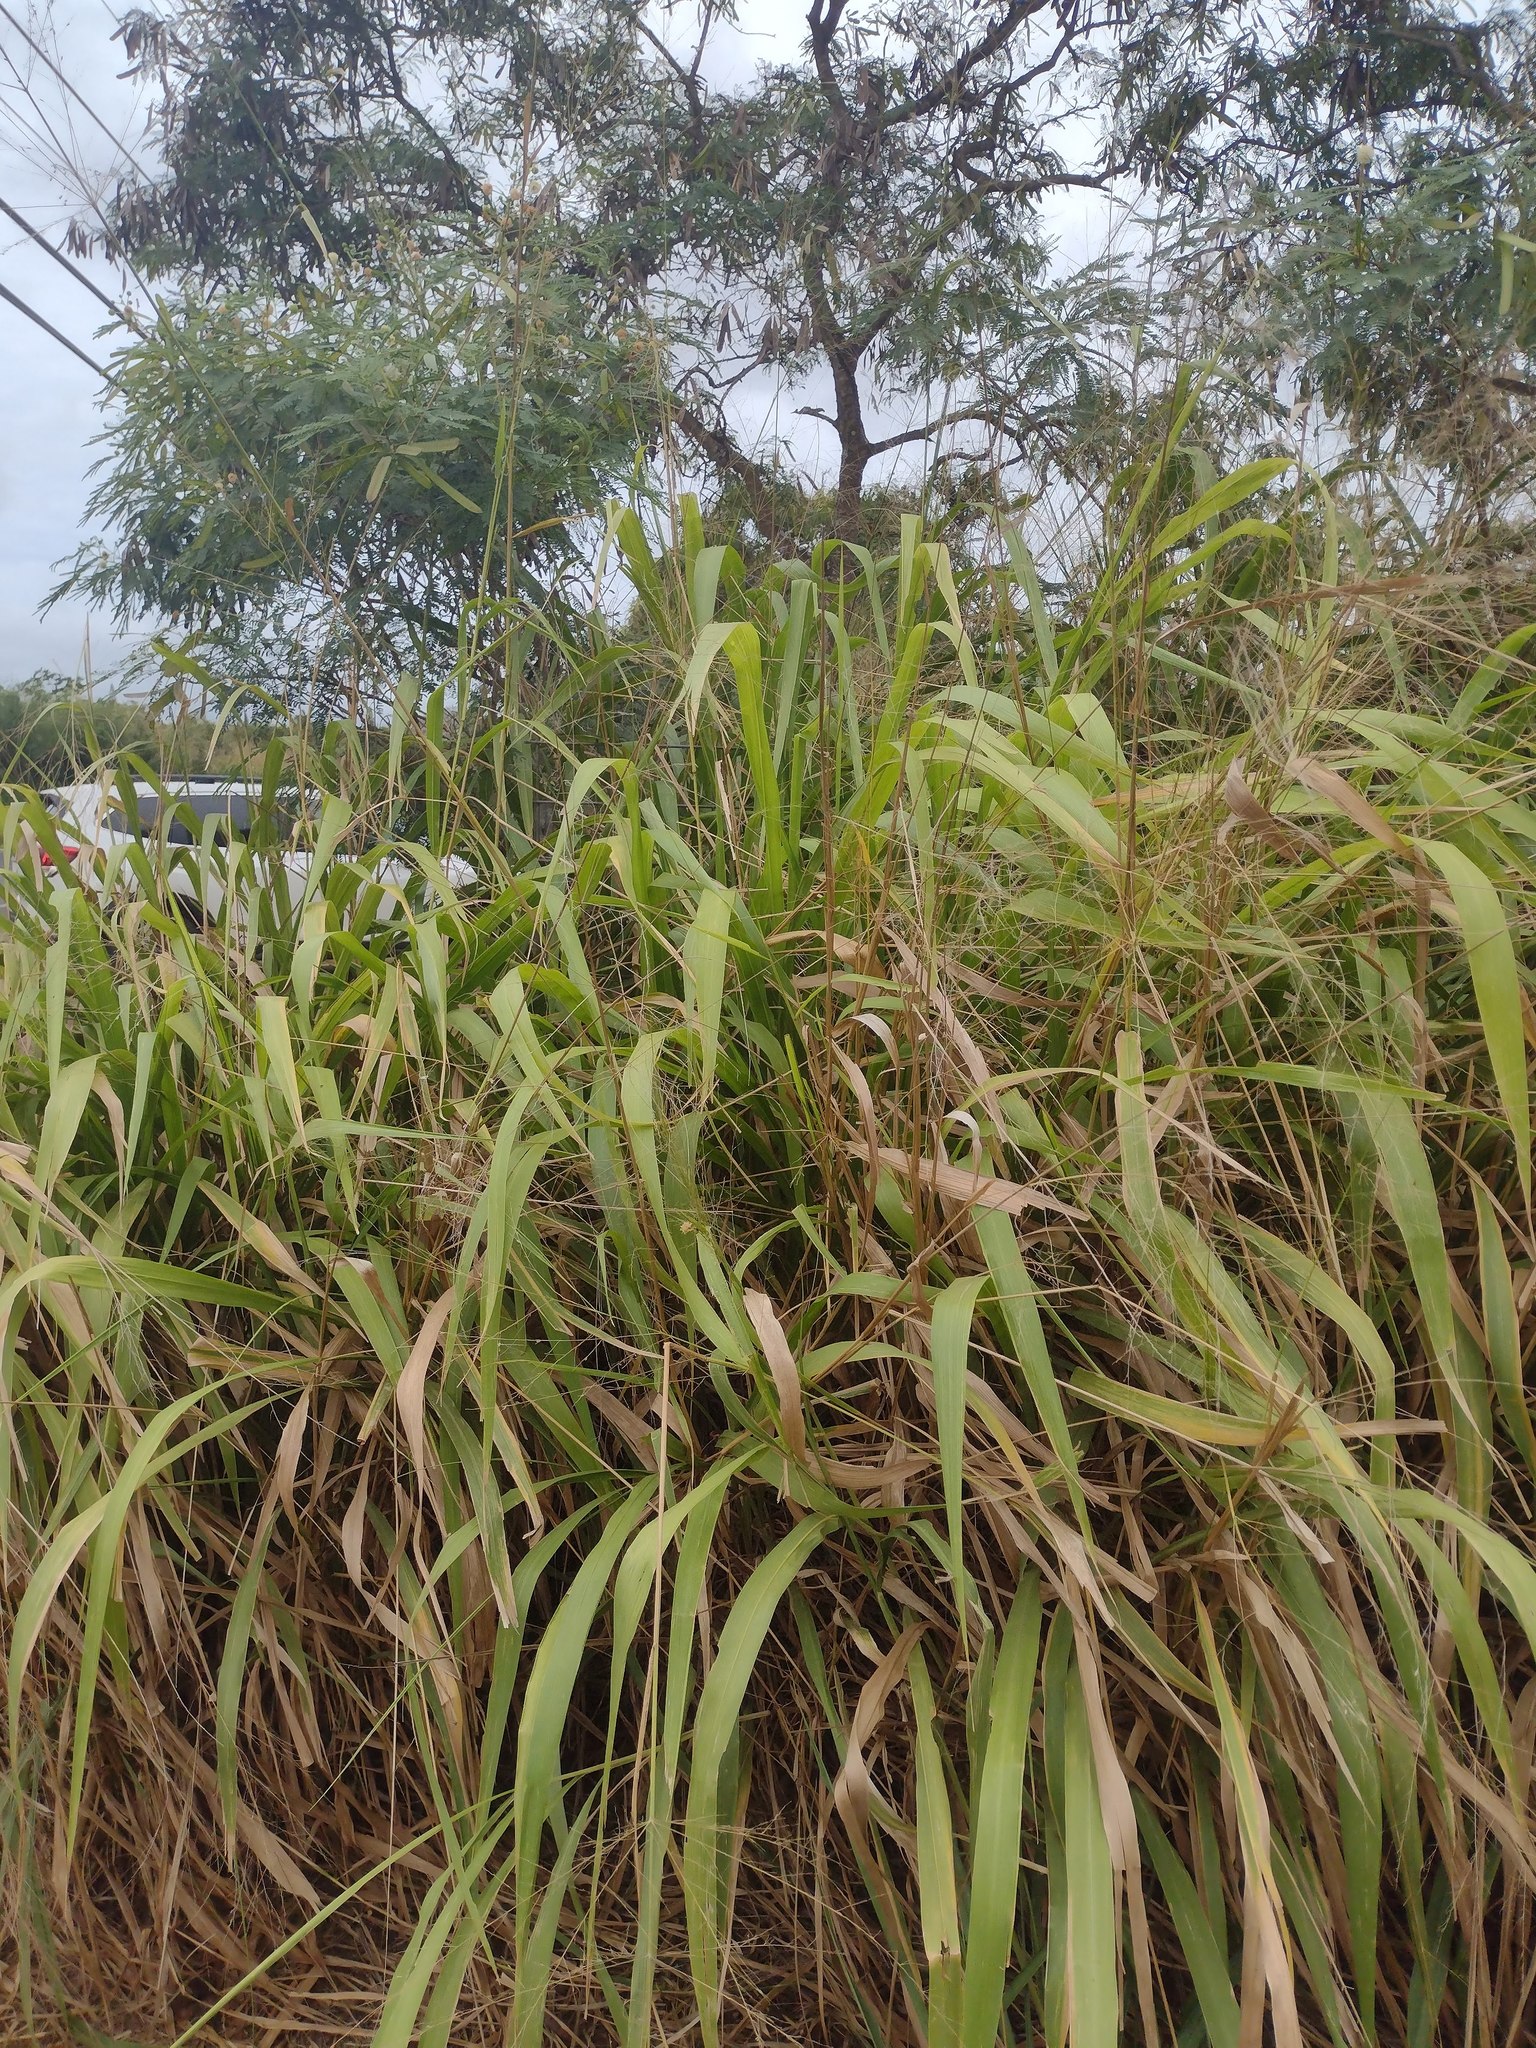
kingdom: Plantae
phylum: Tracheophyta
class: Liliopsida
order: Poales
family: Poaceae
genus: Megathyrsus
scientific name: Megathyrsus maximus
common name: Guineagrass
